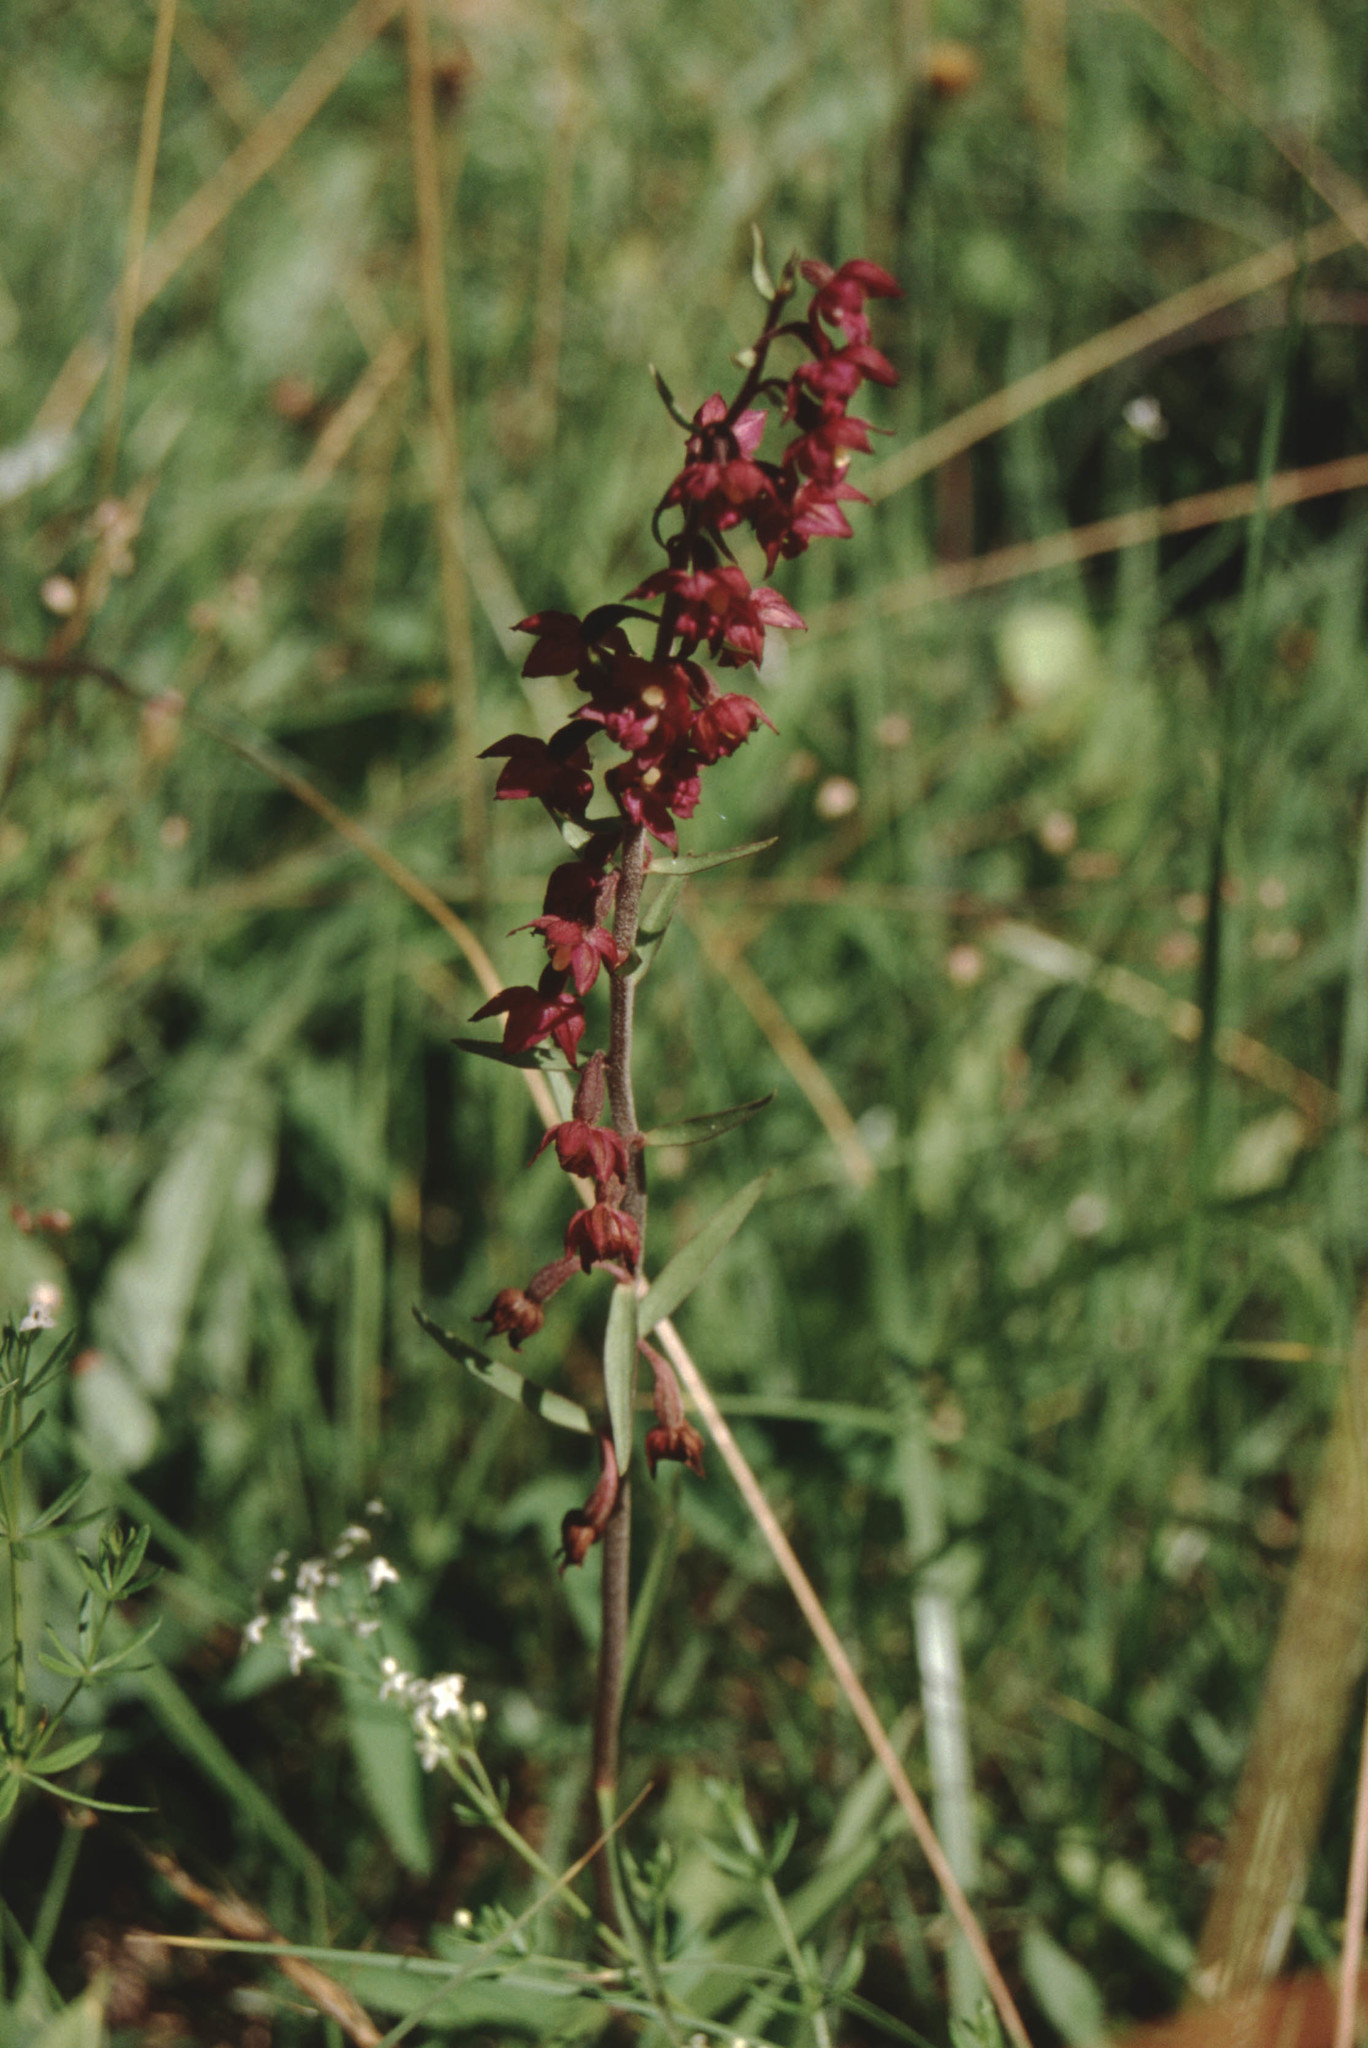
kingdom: Plantae
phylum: Tracheophyta
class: Liliopsida
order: Asparagales
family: Orchidaceae
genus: Epipactis
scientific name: Epipactis atrorubens
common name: Dark-red helleborine
